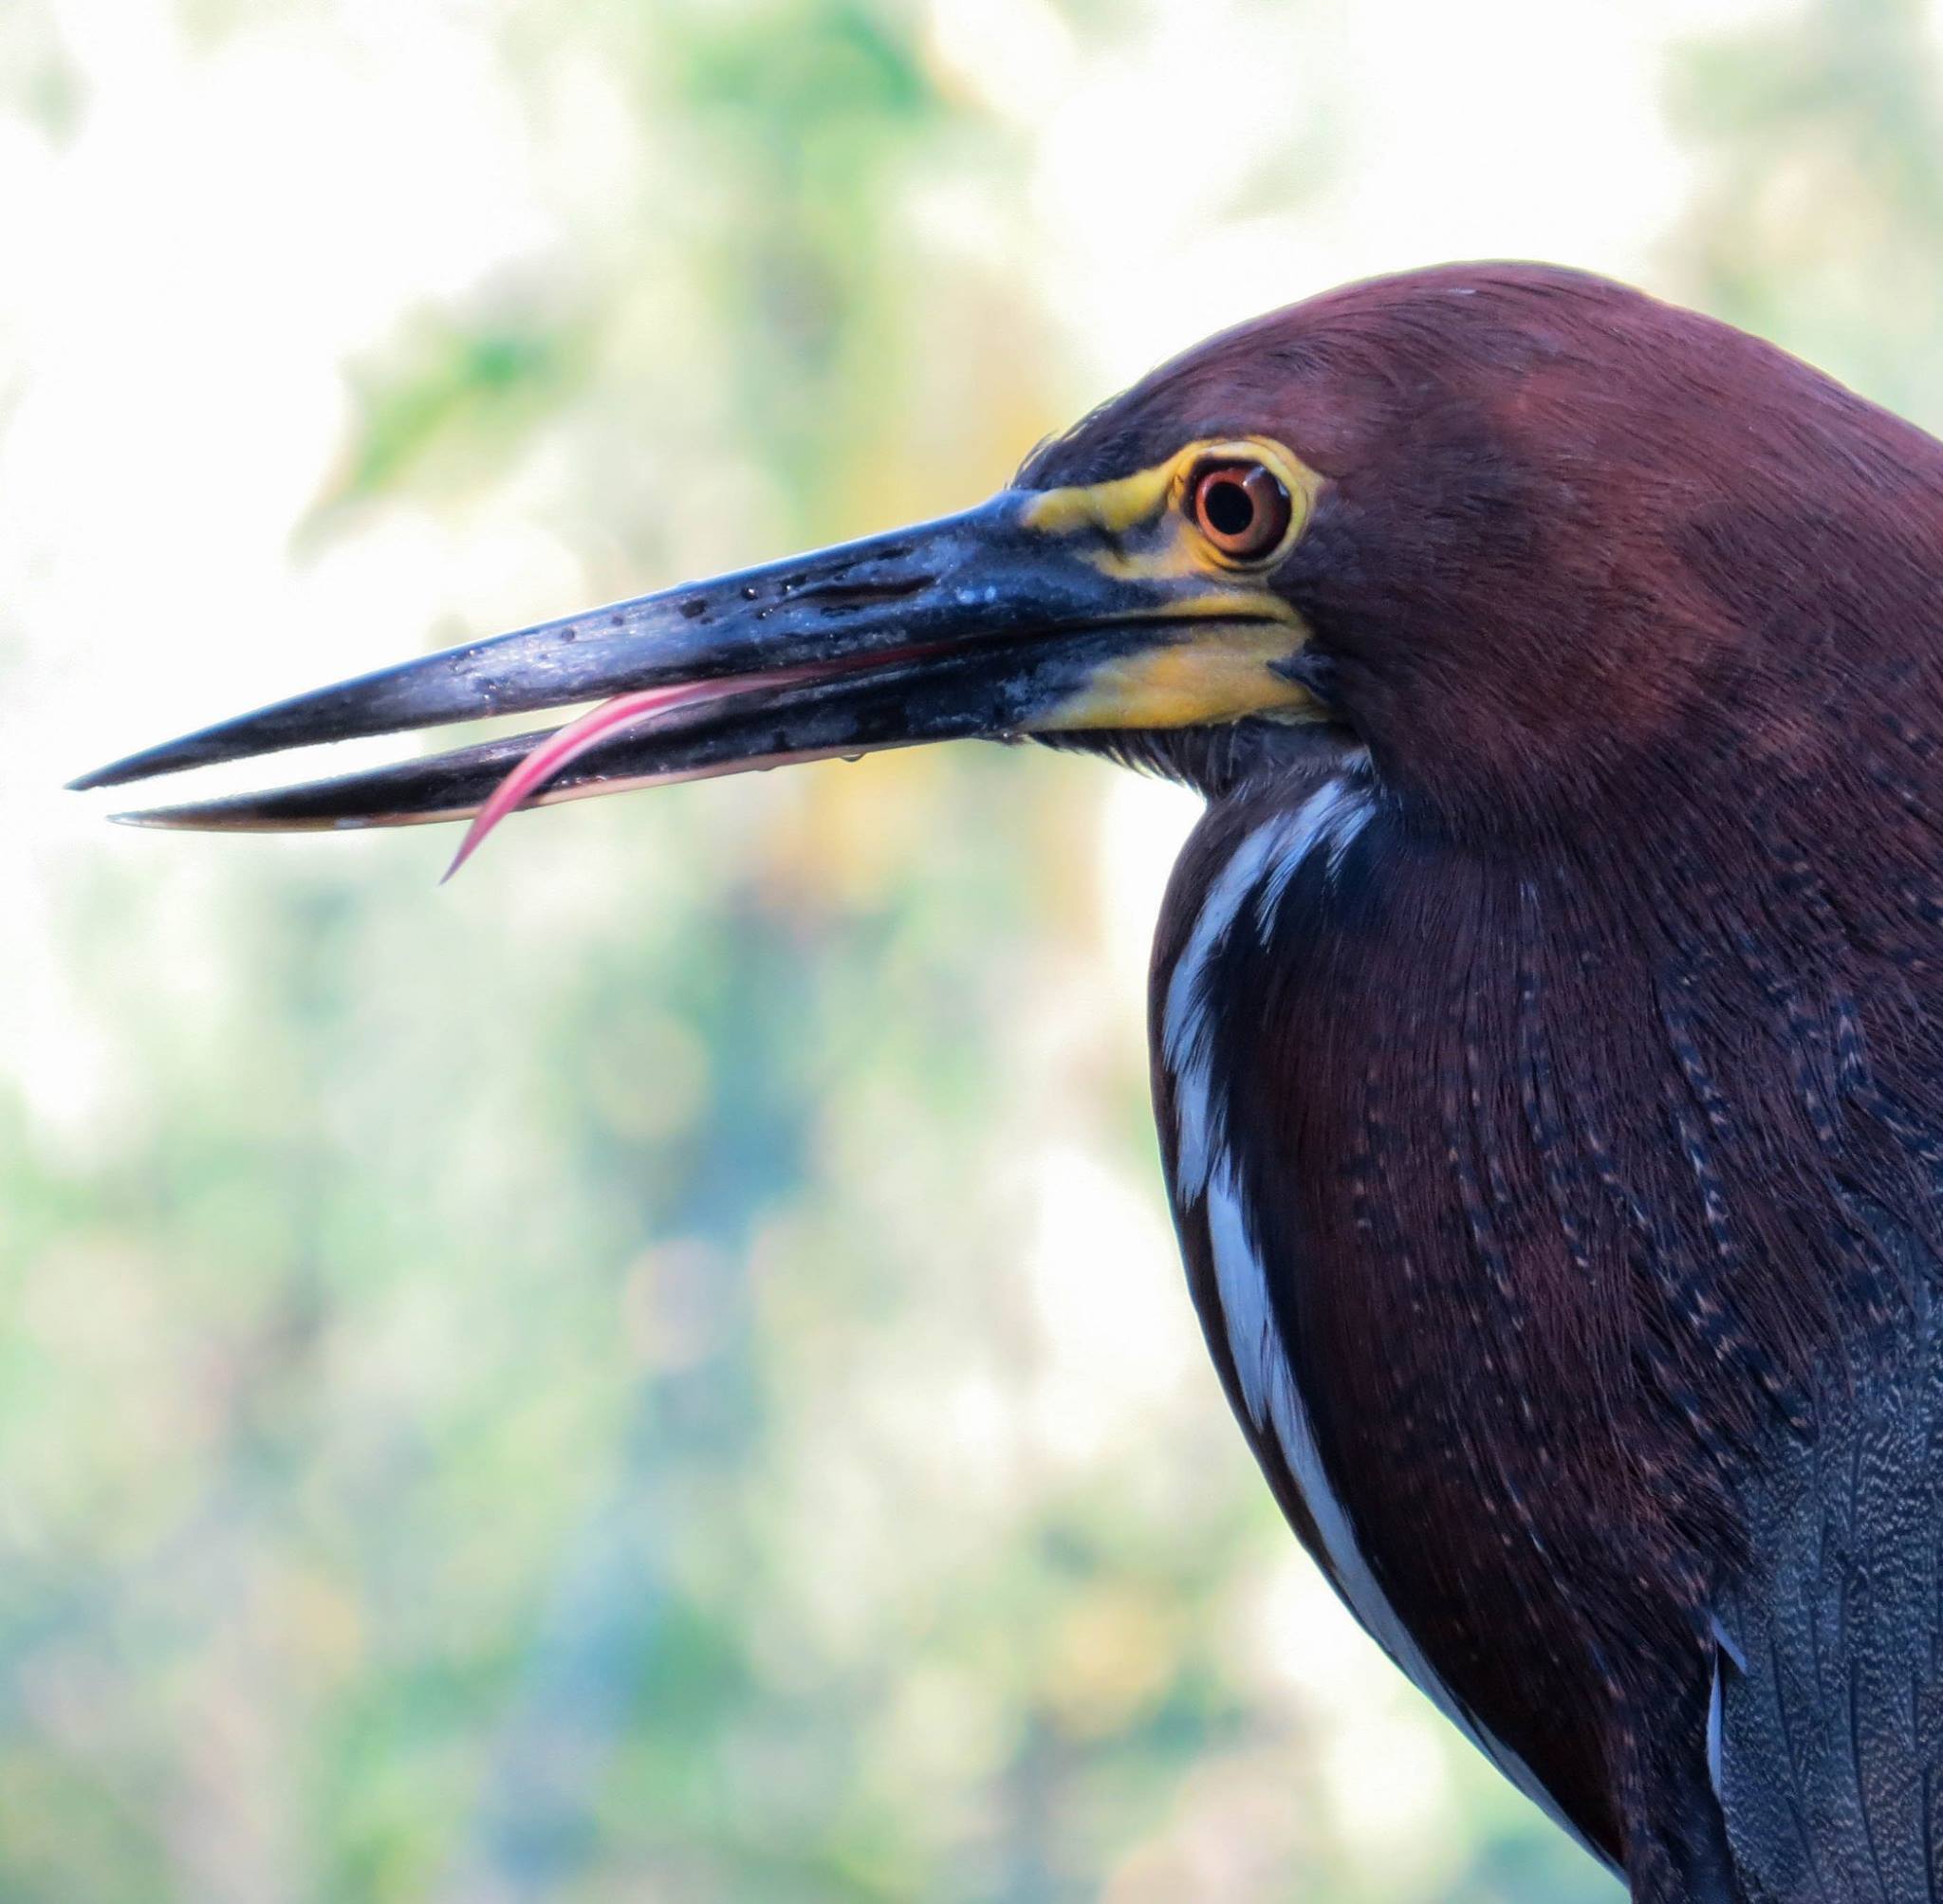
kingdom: Animalia
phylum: Chordata
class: Aves
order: Pelecaniformes
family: Ardeidae
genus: Tigrisoma
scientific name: Tigrisoma lineatum
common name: Rufescent tiger-heron
